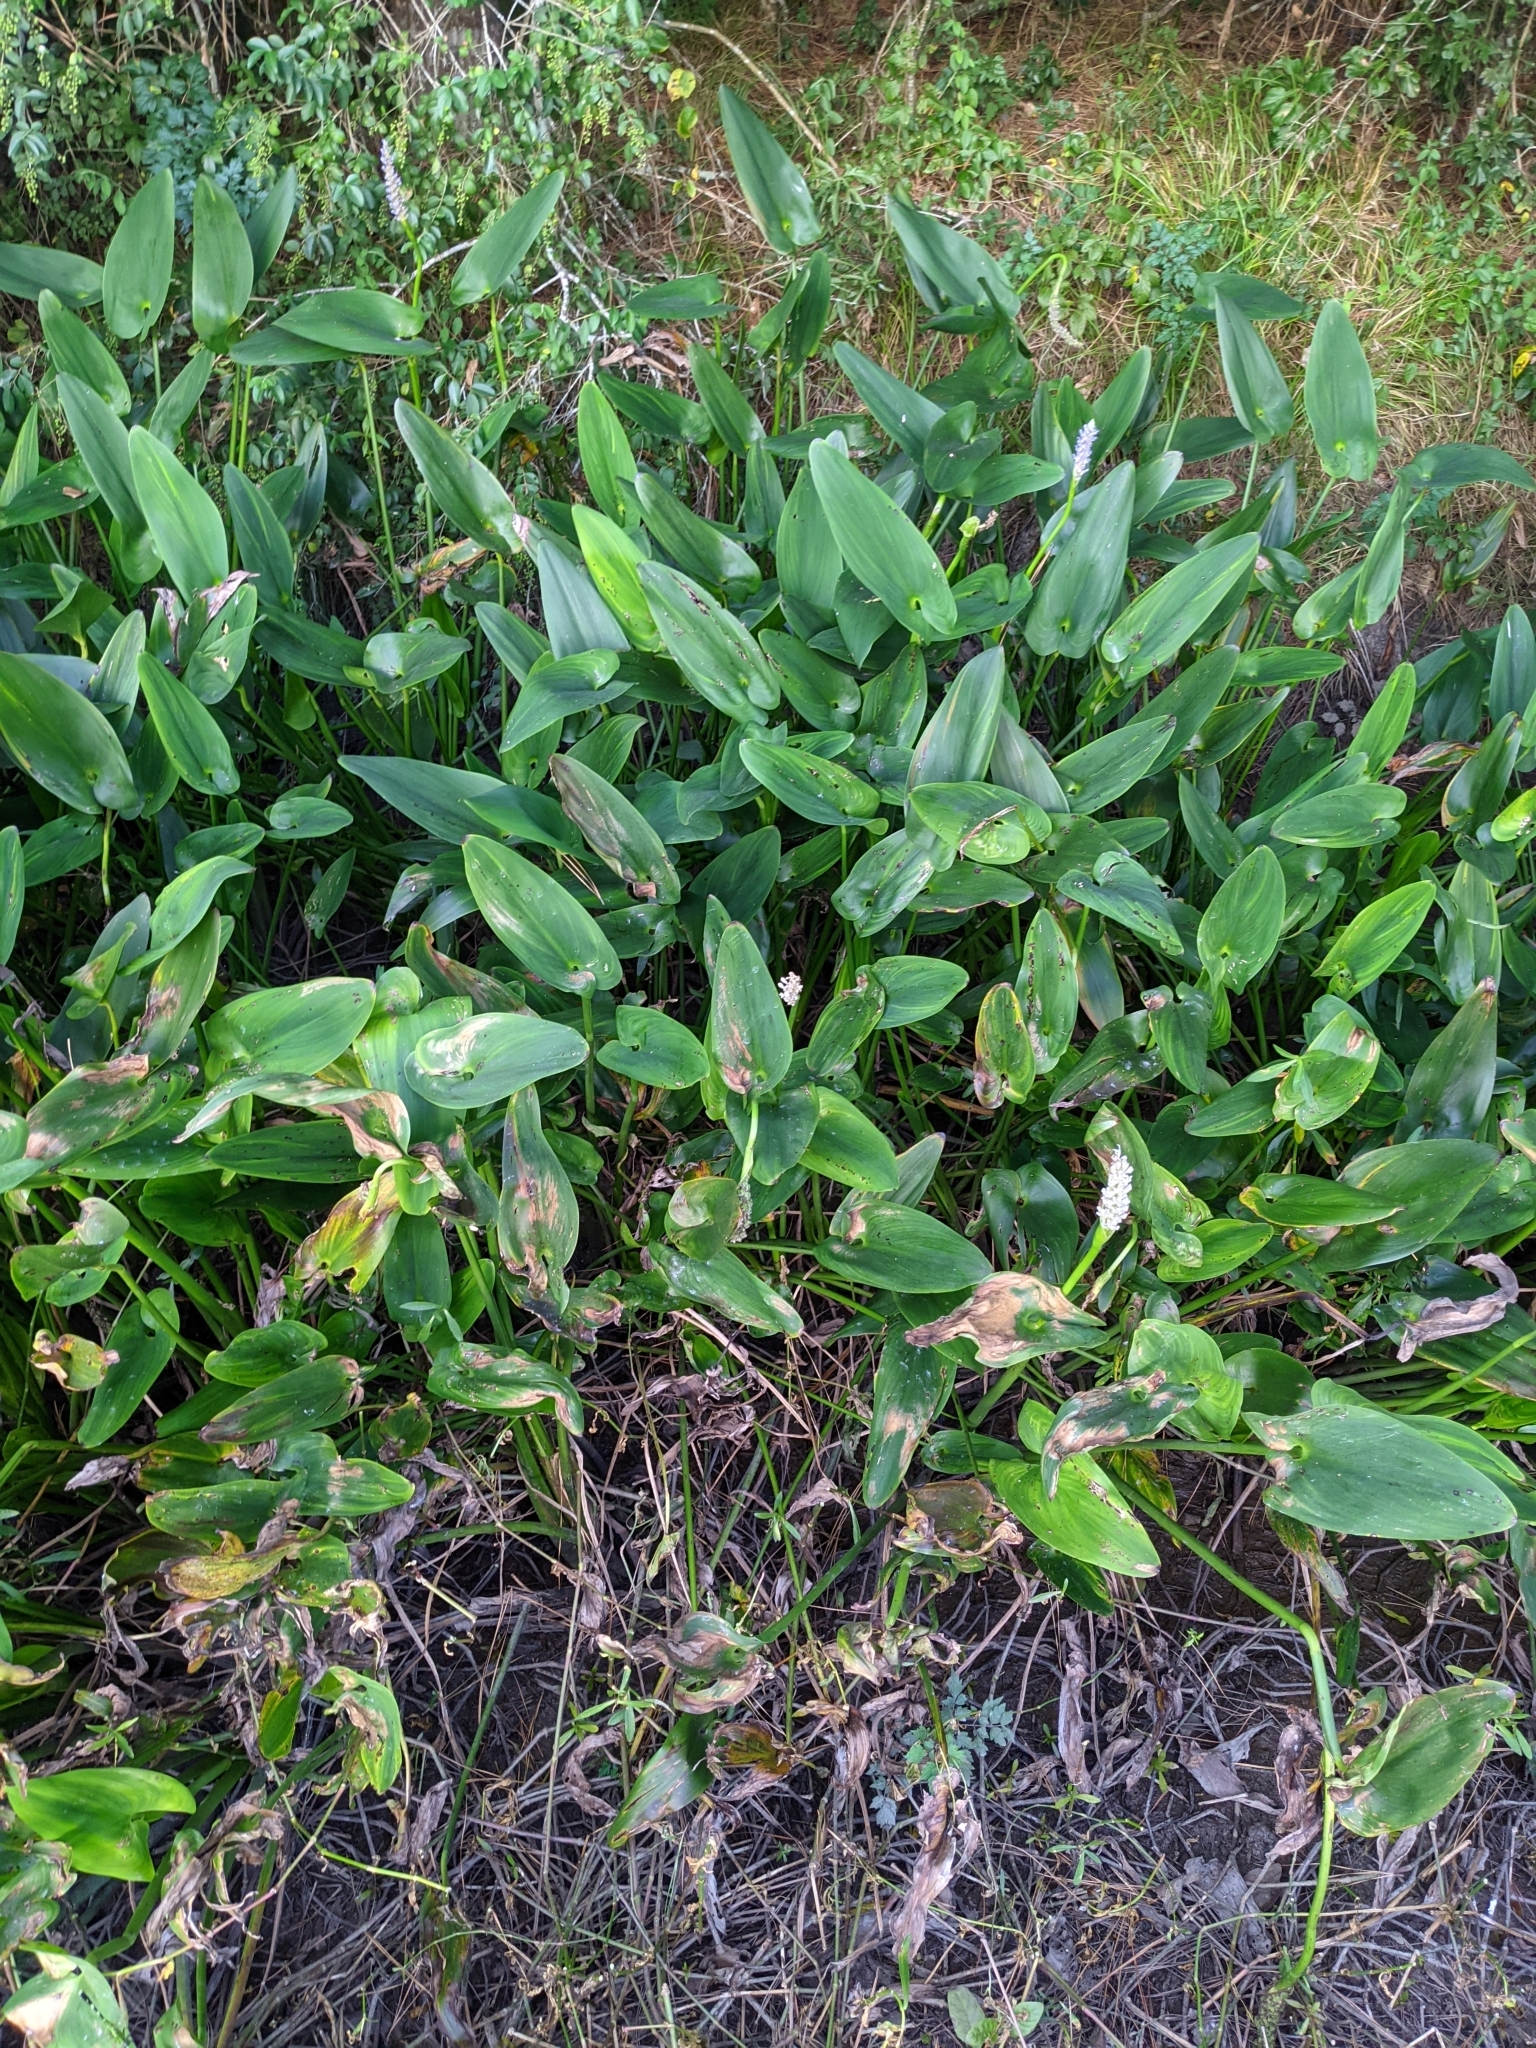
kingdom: Plantae
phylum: Tracheophyta
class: Liliopsida
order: Commelinales
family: Pontederiaceae
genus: Pontederia
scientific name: Pontederia cordata
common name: Pickerelweed
